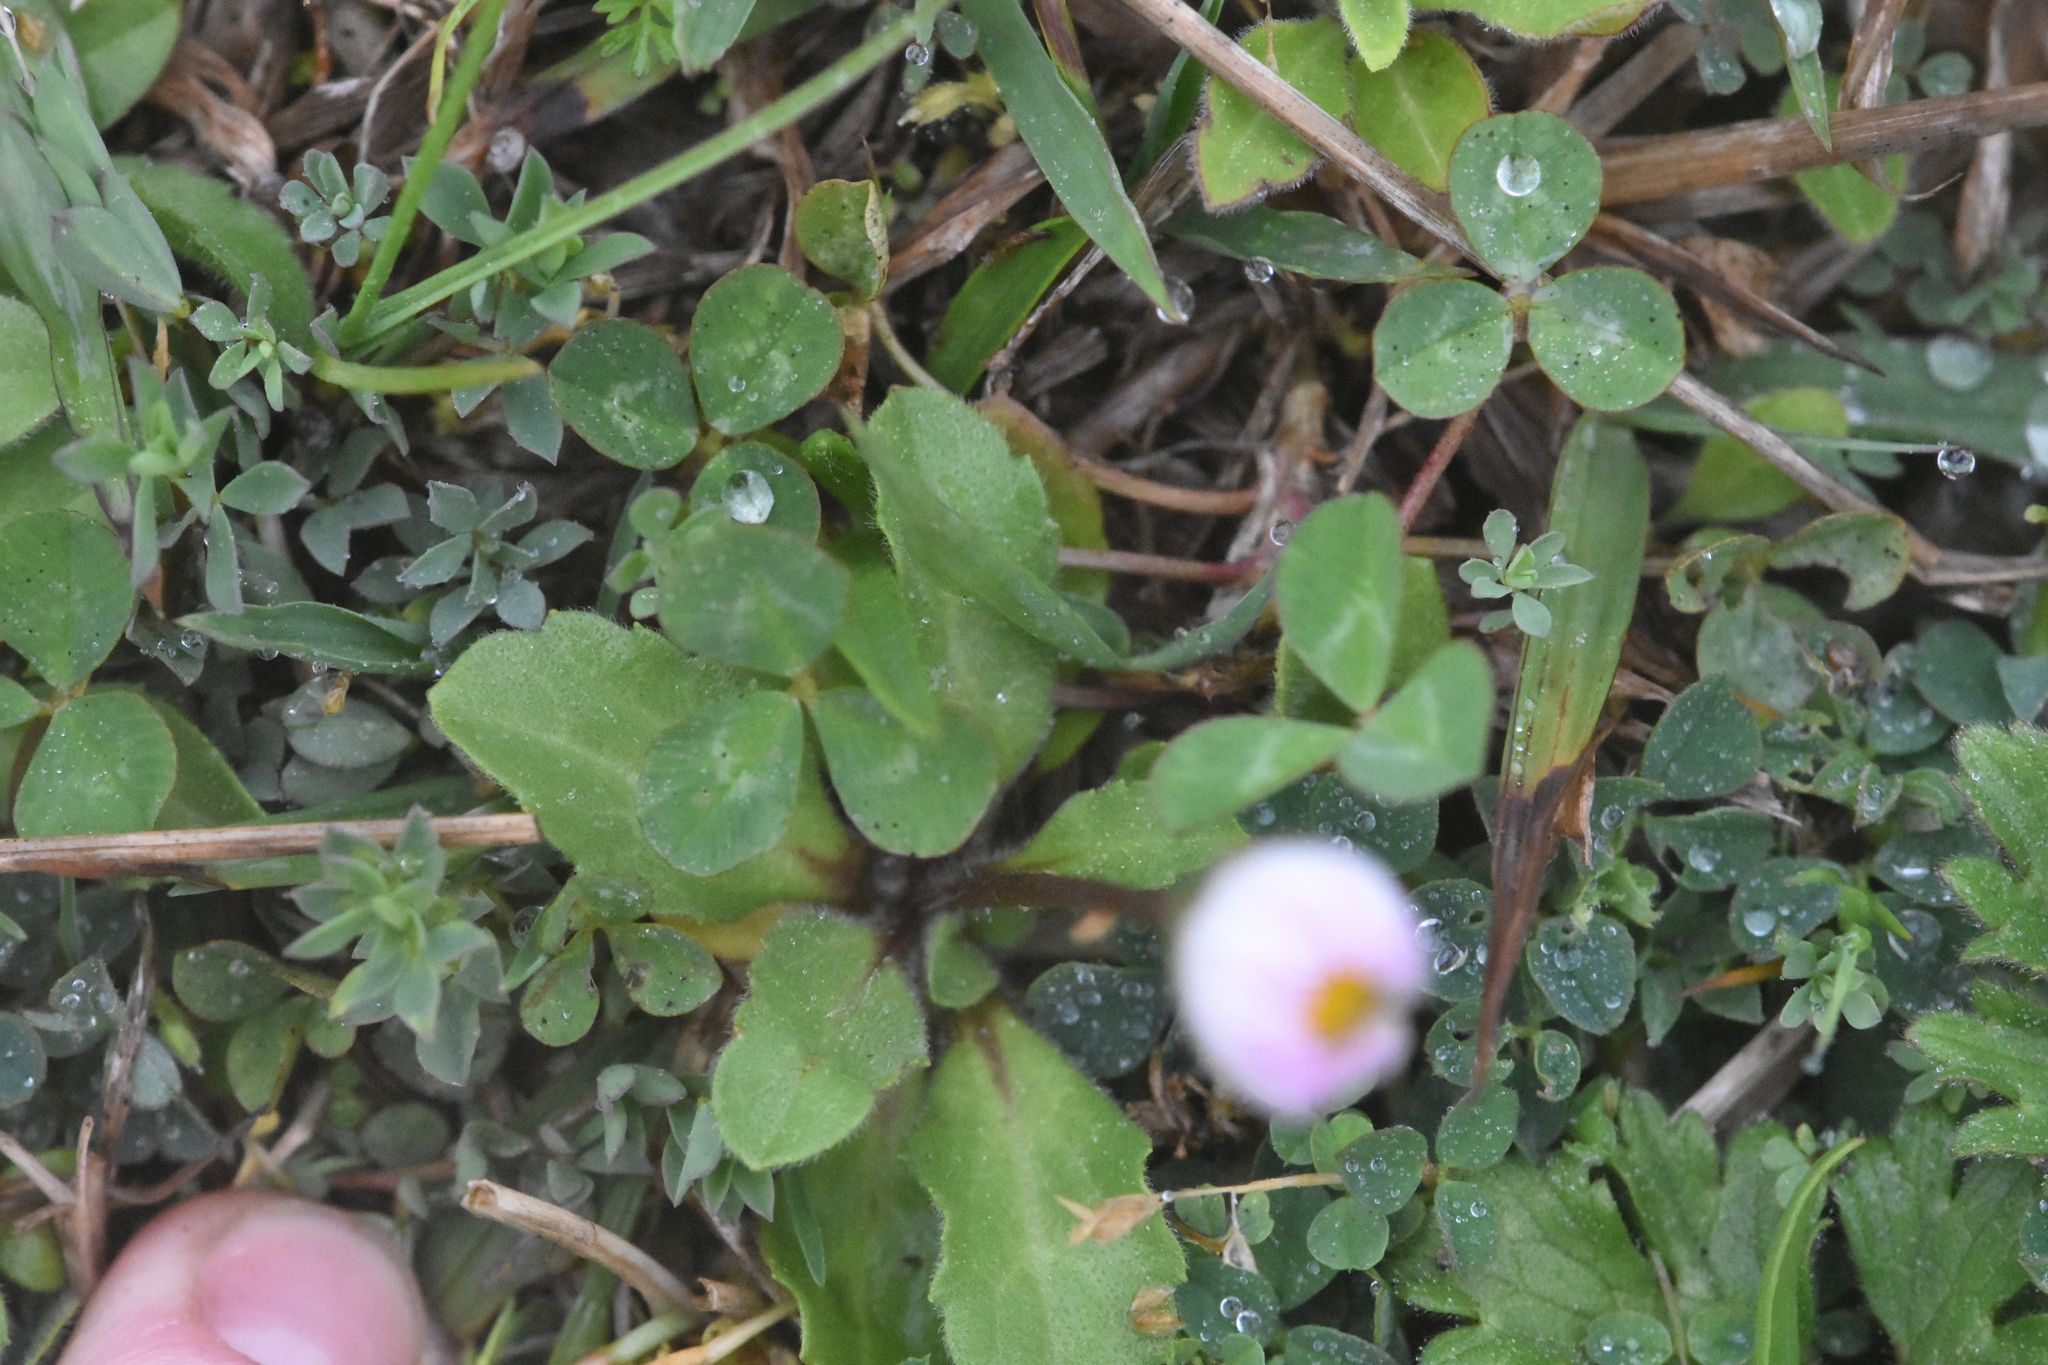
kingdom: Plantae
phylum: Tracheophyta
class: Magnoliopsida
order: Asterales
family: Asteraceae
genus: Bellis
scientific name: Bellis perennis
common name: Lawndaisy
